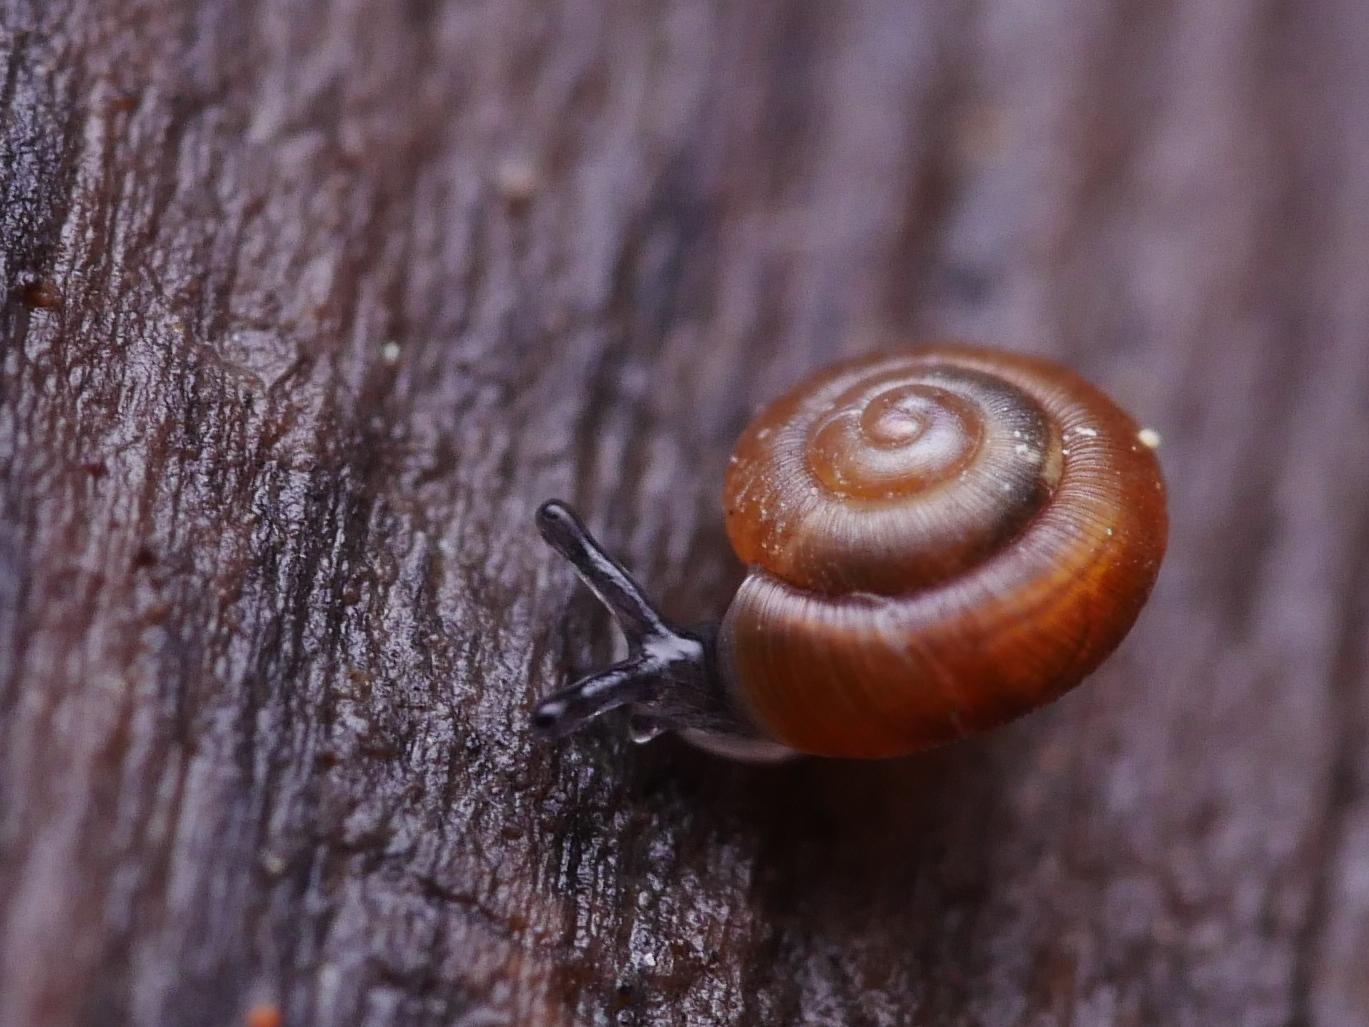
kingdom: Animalia
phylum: Mollusca
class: Gastropoda
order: Stylommatophora
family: Punctidae
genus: Punctum
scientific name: Punctum pygmaeum
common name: Dwarf snail
